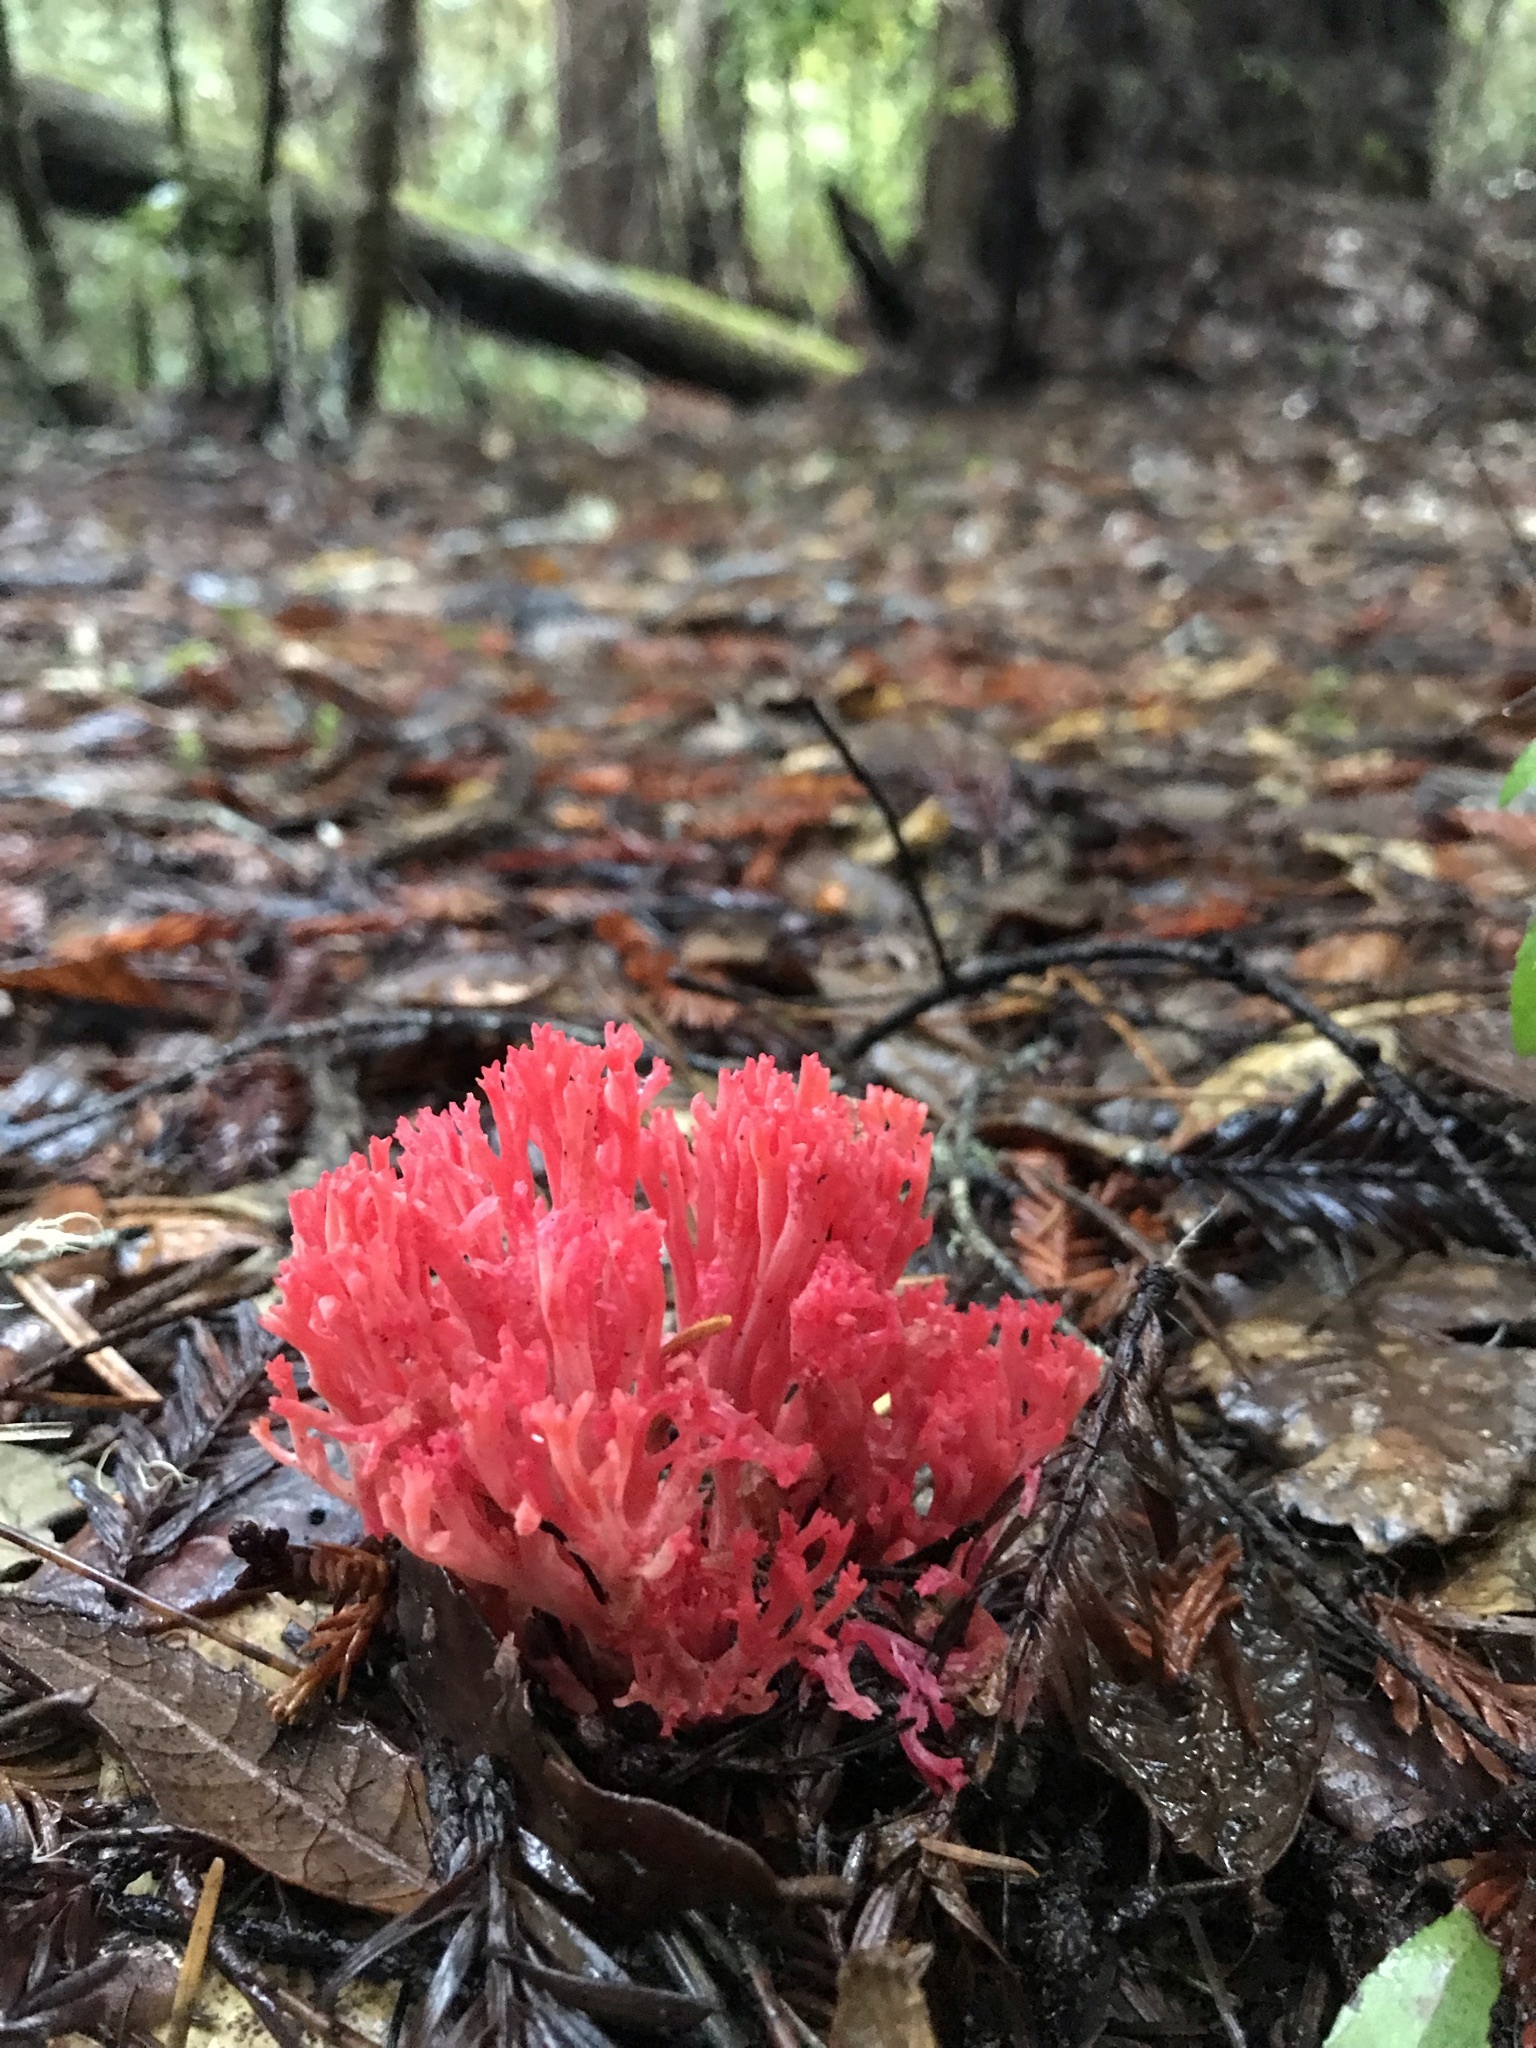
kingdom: Fungi
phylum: Basidiomycota
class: Agaricomycetes
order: Gomphales
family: Gomphaceae
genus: Ramaria
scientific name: Ramaria araiospora
